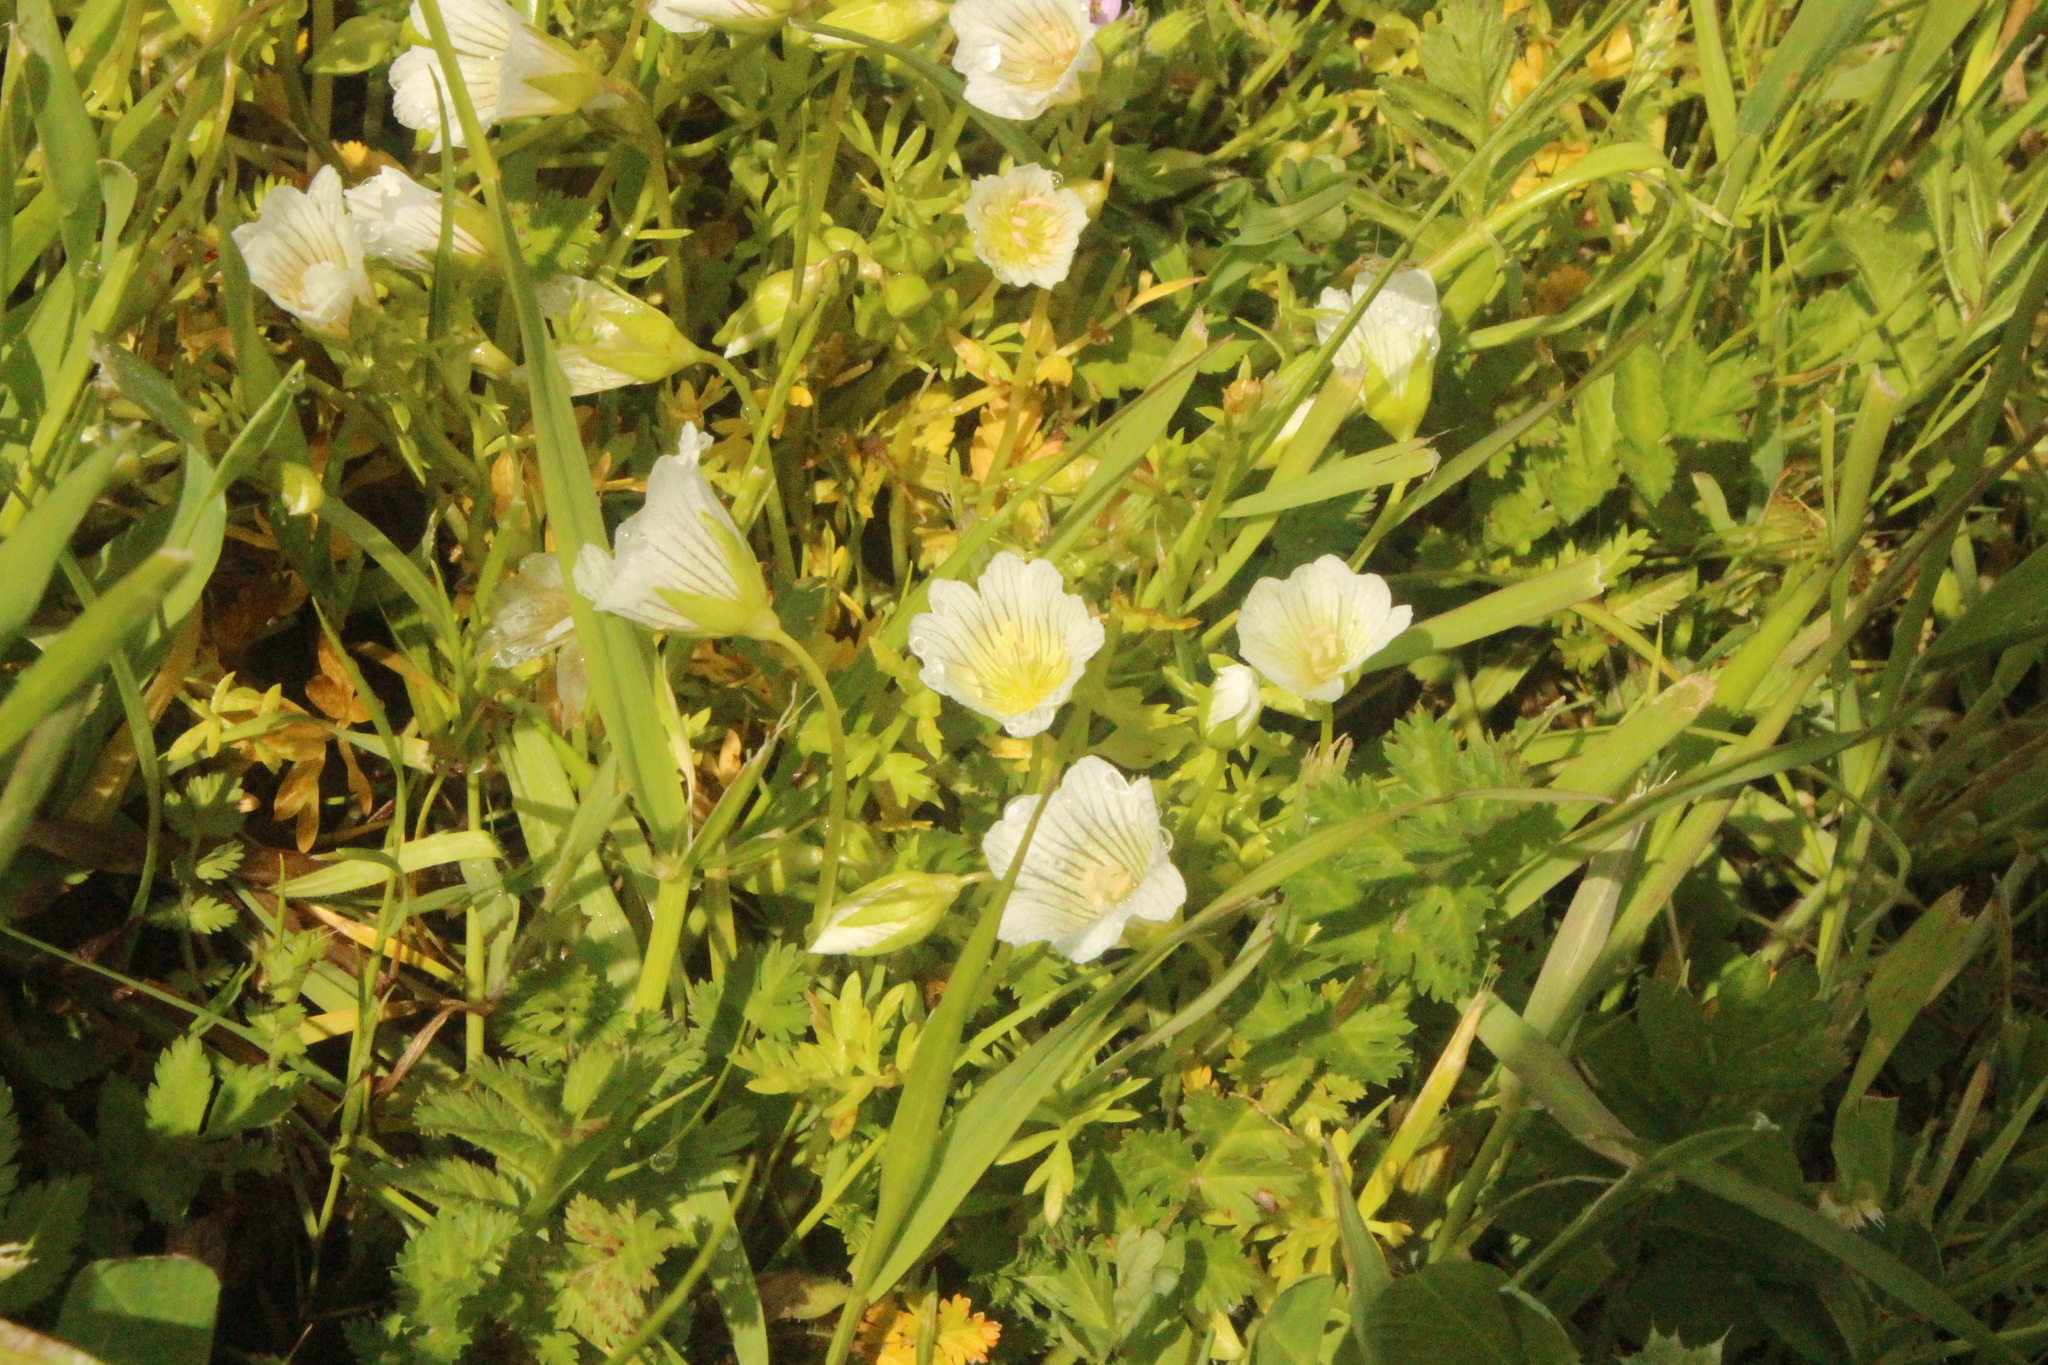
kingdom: Plantae
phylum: Tracheophyta
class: Magnoliopsida
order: Brassicales
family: Limnanthaceae
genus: Limnanthes
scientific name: Limnanthes douglasii
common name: Meadow-foam
